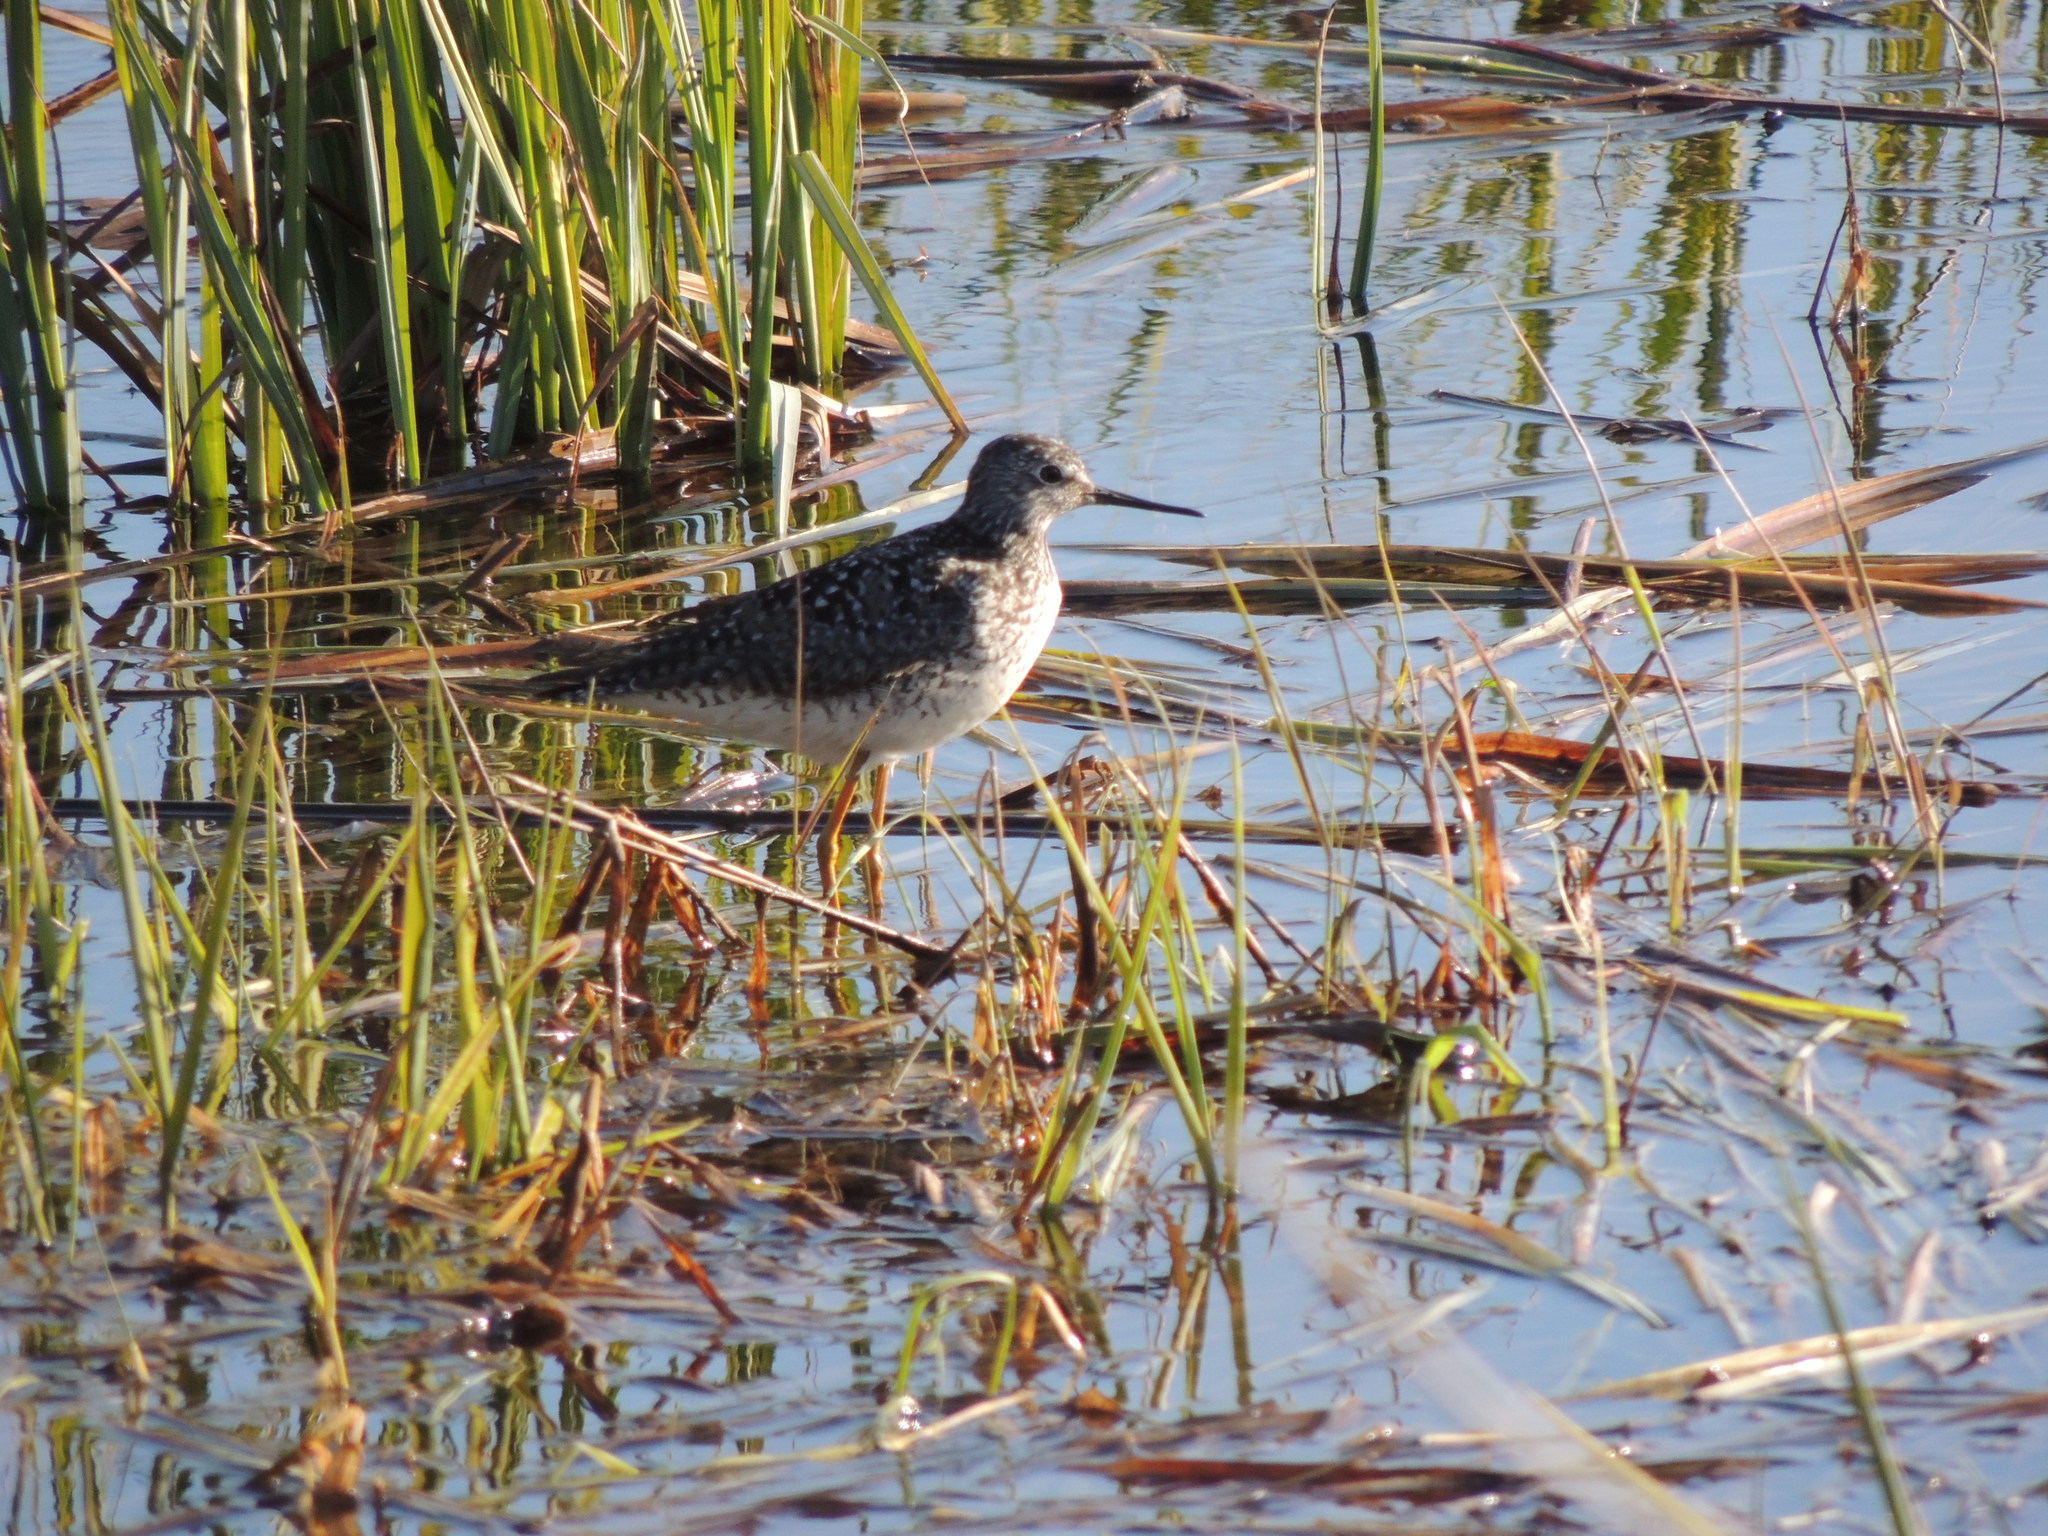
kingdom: Animalia
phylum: Chordata
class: Aves
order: Charadriiformes
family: Scolopacidae
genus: Tringa
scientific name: Tringa flavipes
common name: Lesser yellowlegs
